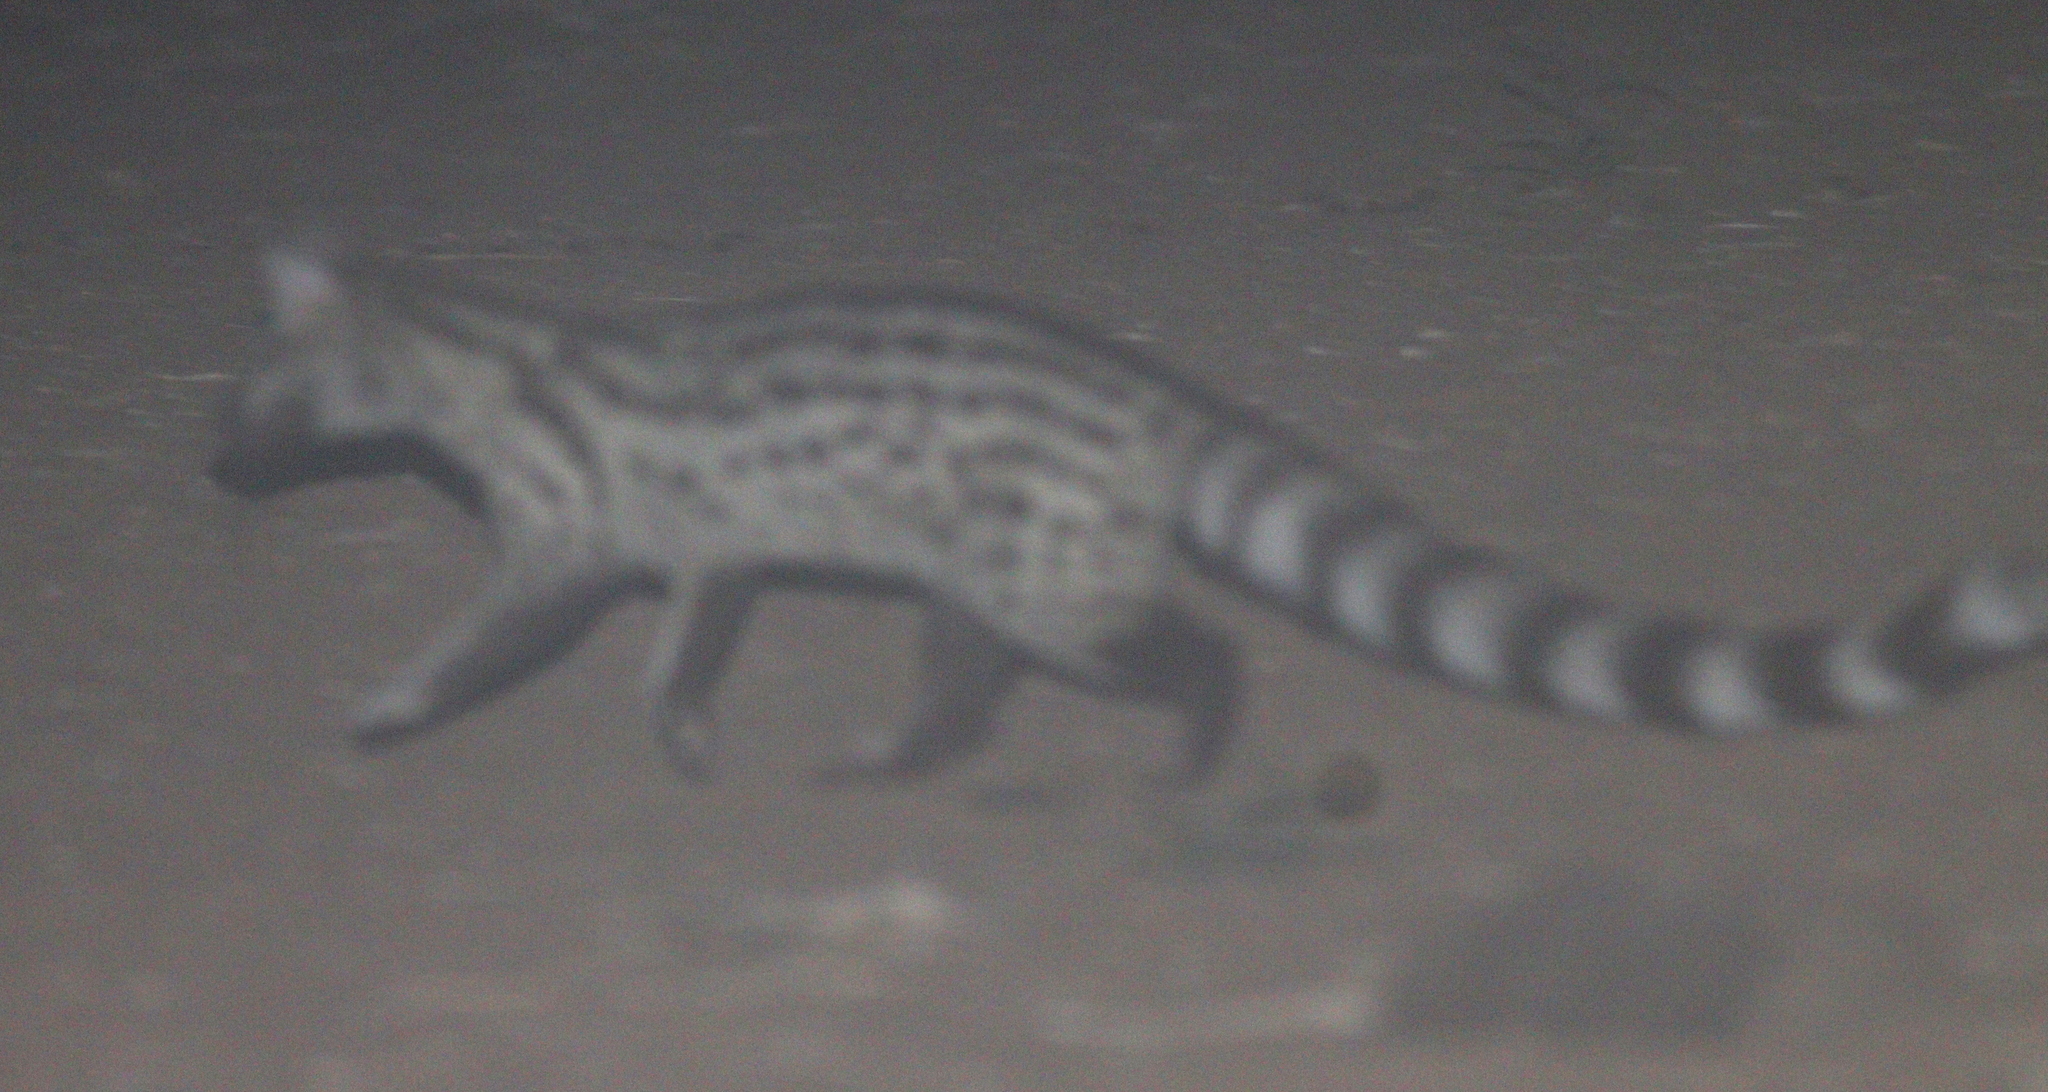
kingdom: Animalia
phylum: Chordata
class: Mammalia
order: Carnivora
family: Viverridae
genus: Genetta
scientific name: Genetta genetta
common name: Common genet
